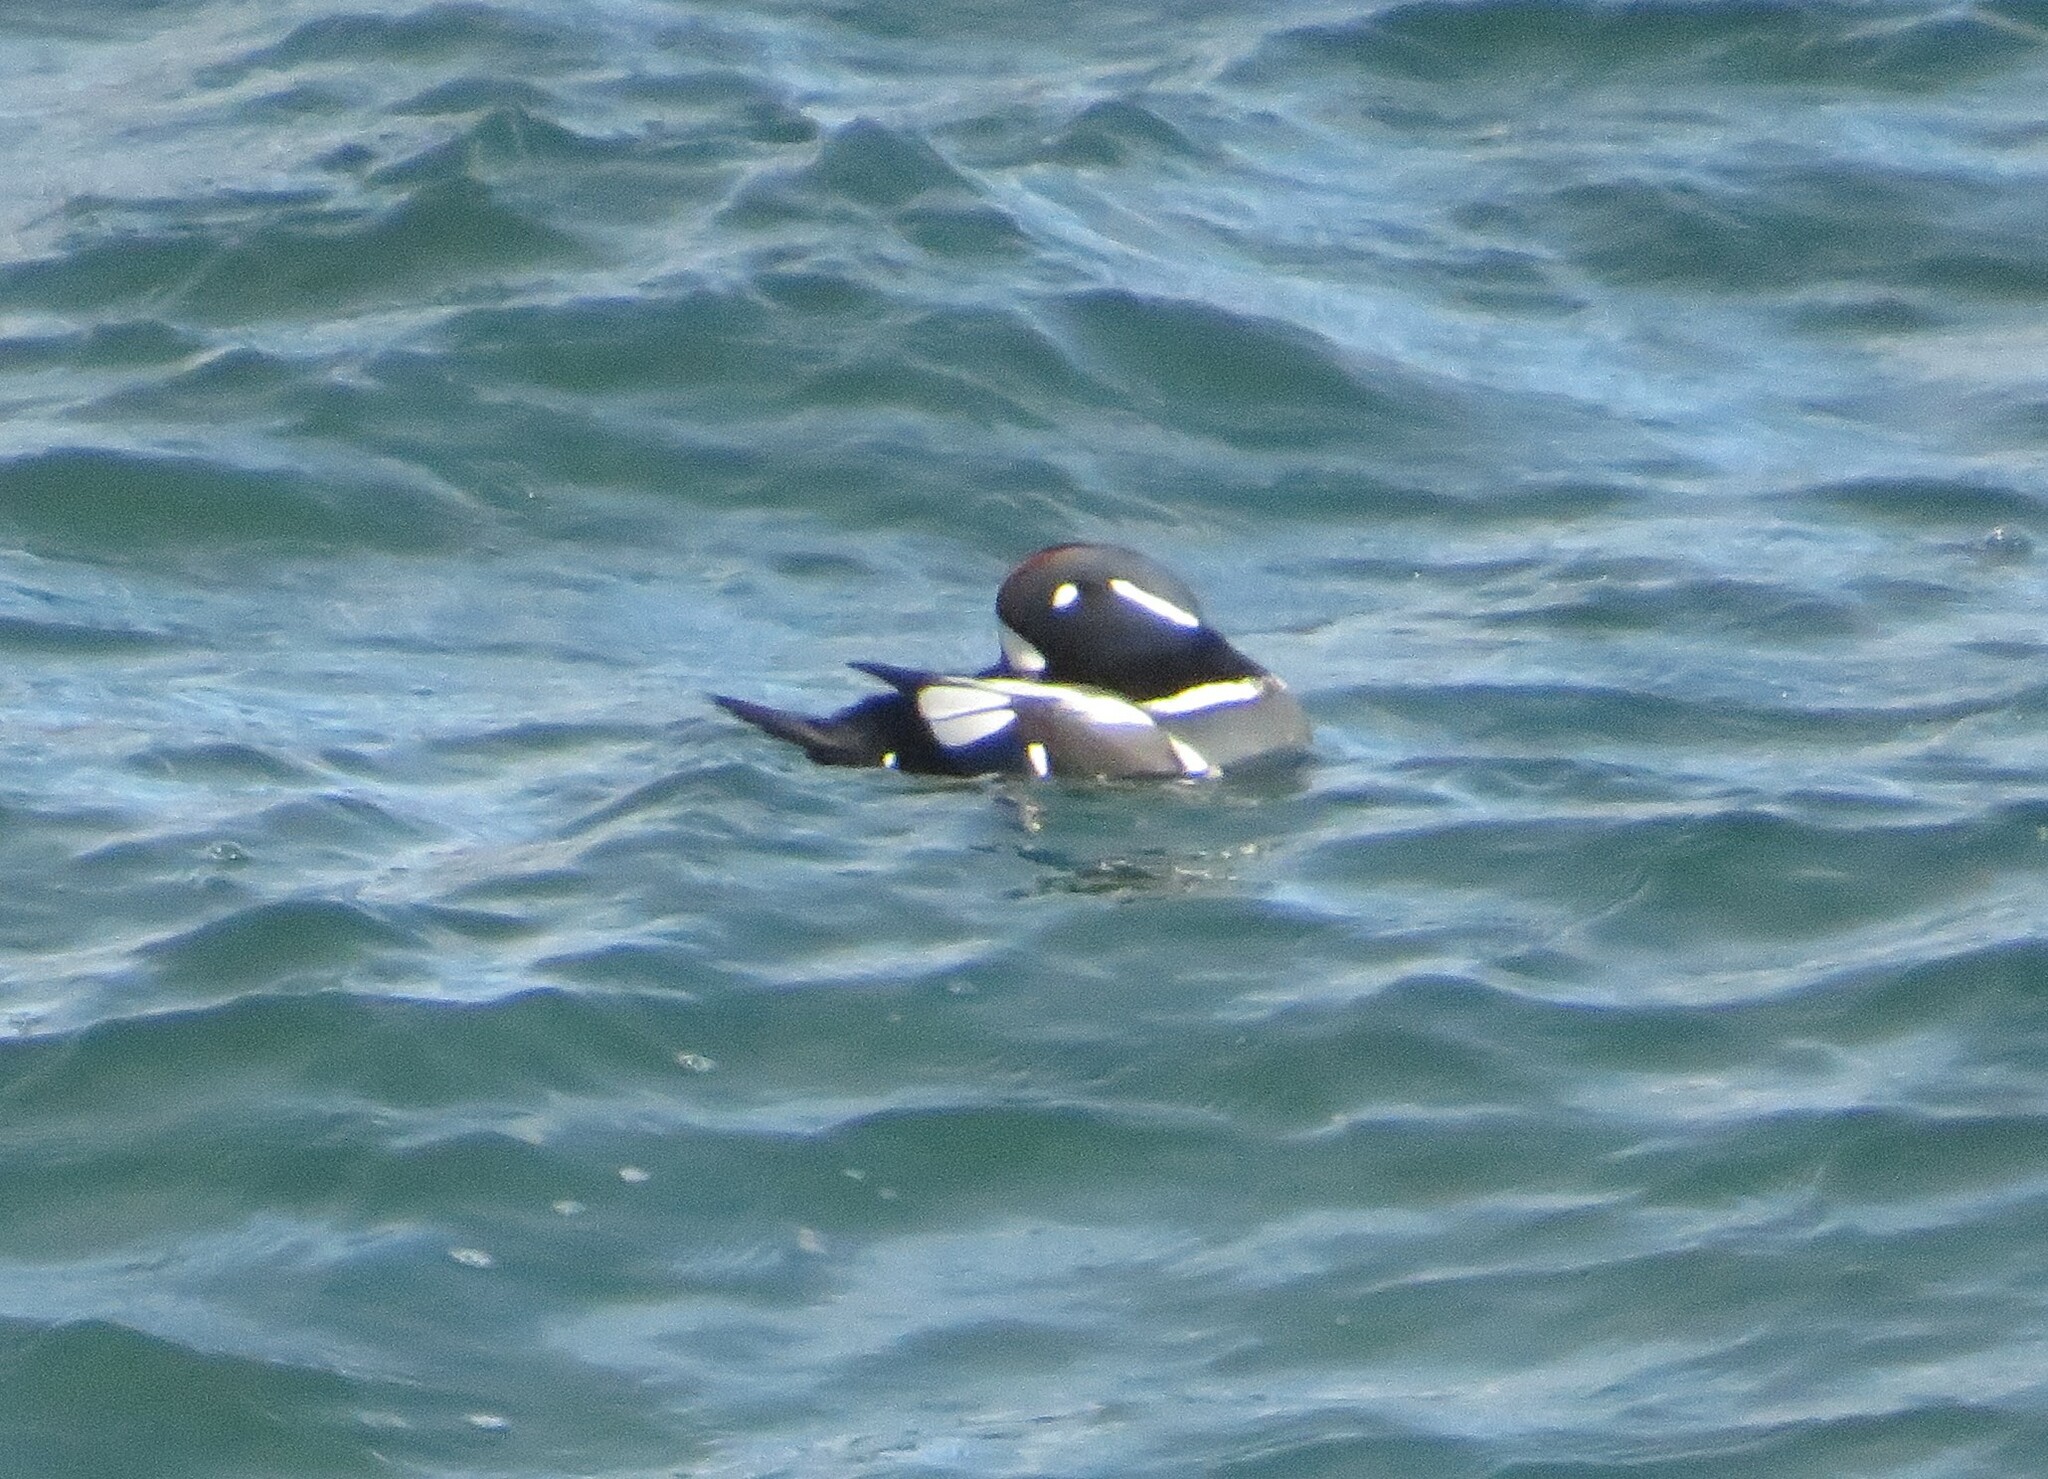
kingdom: Animalia
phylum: Chordata
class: Aves
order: Anseriformes
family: Anatidae
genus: Histrionicus
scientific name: Histrionicus histrionicus
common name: Harlequin duck
